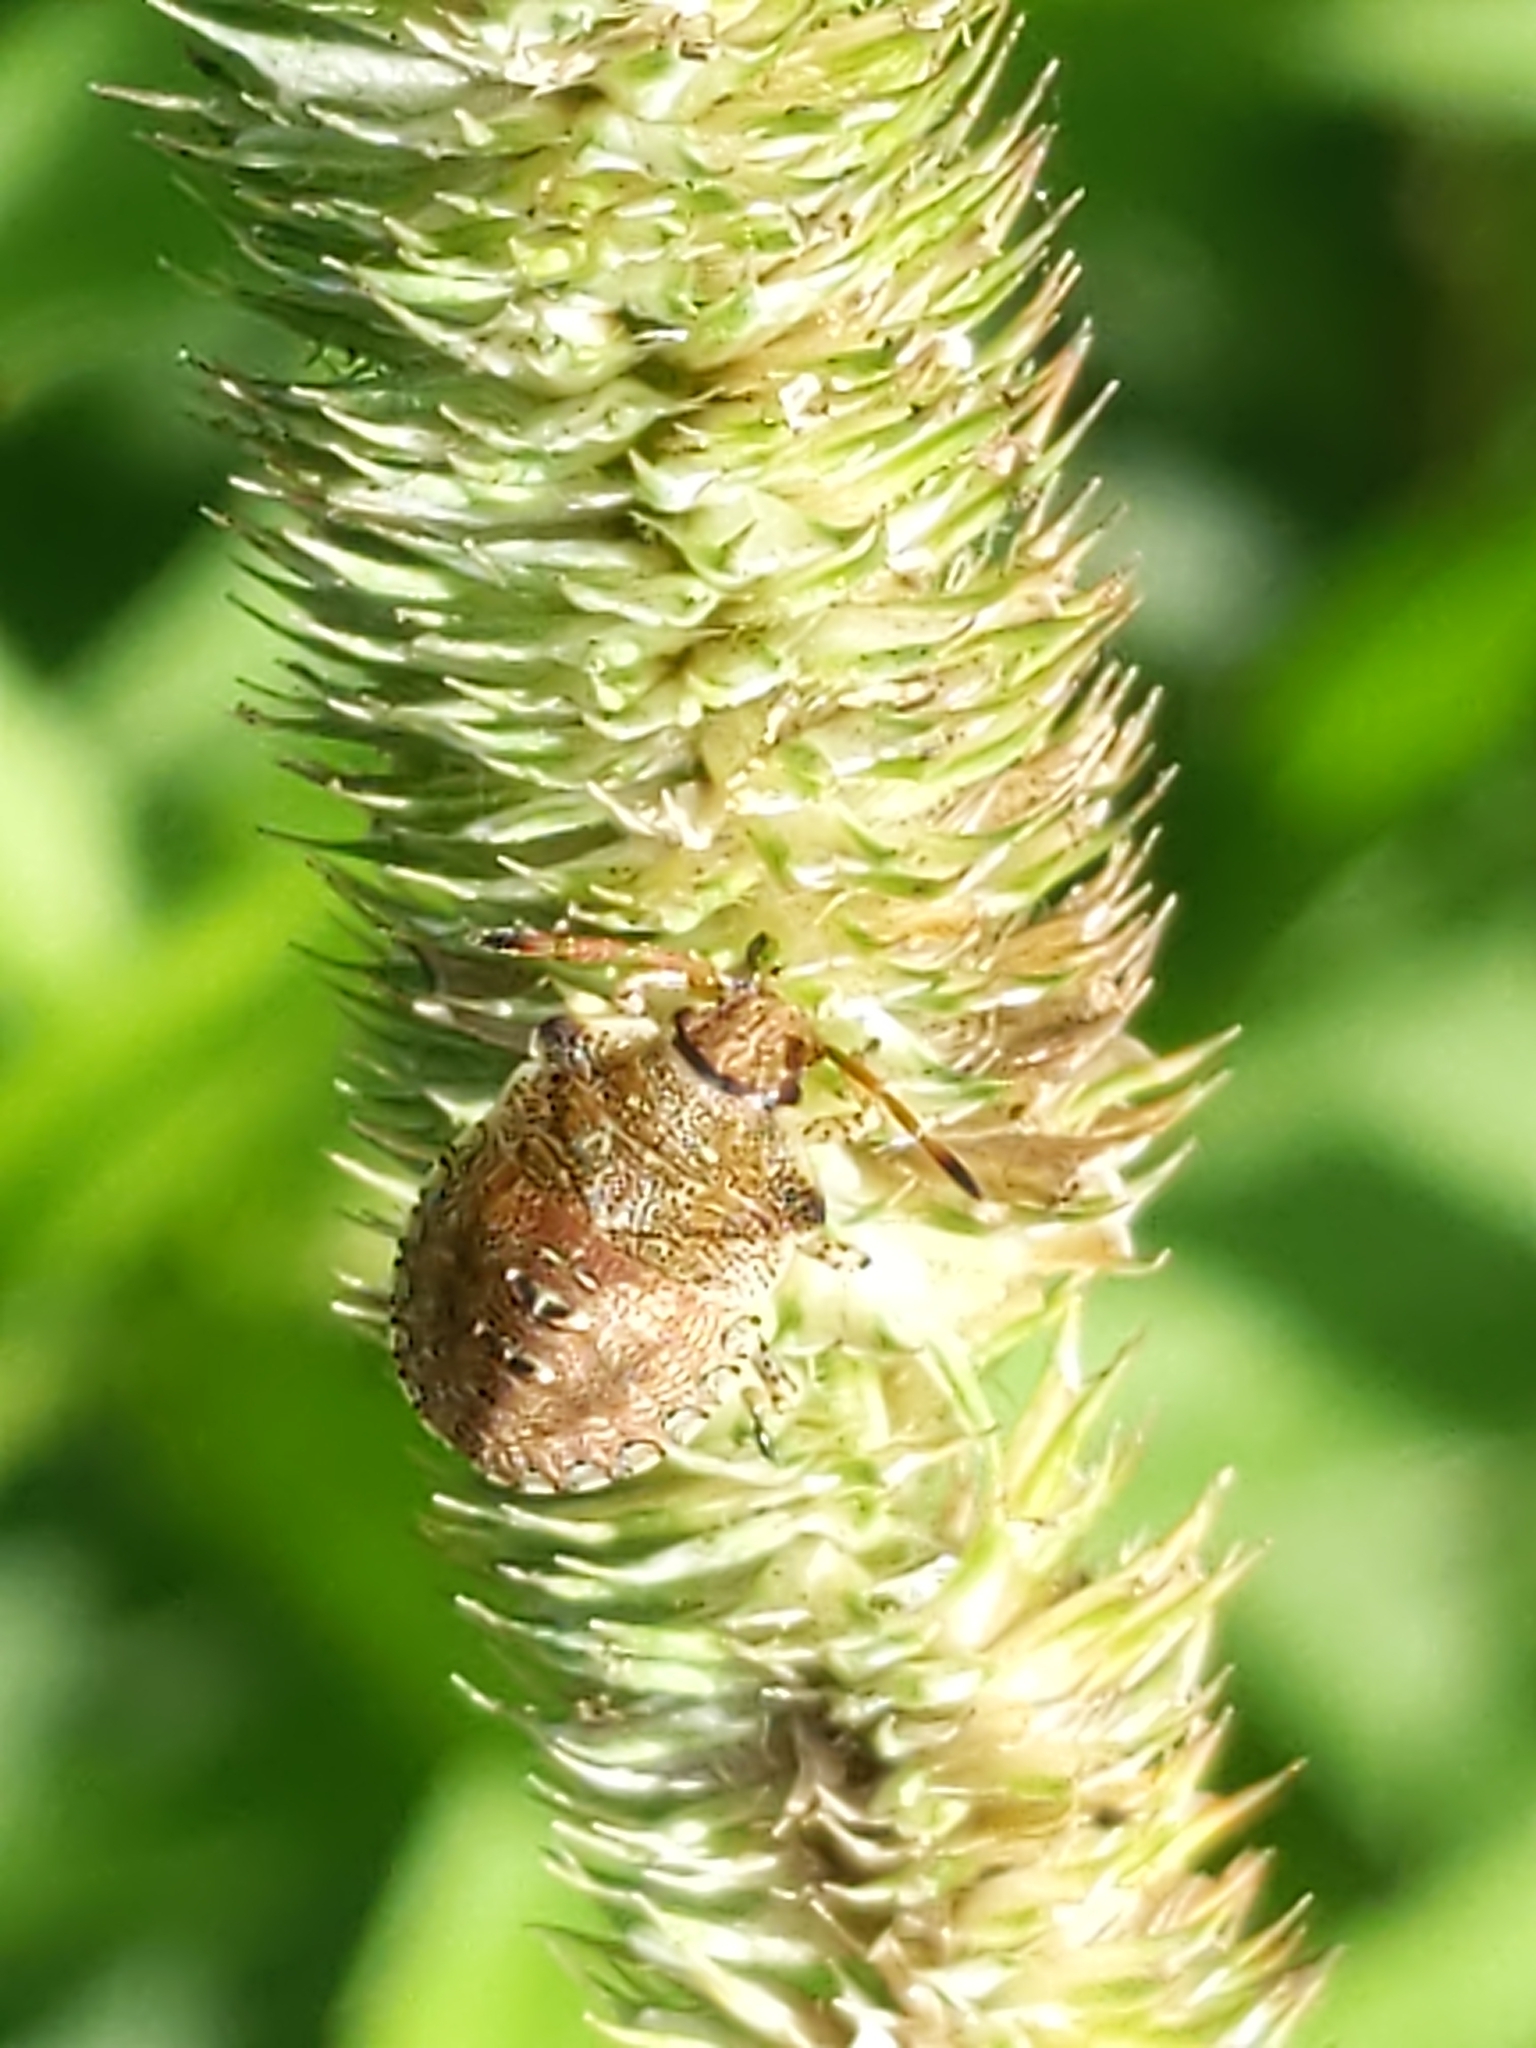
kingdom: Animalia
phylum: Arthropoda
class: Insecta
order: Hemiptera
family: Pentatomidae
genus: Euschistus
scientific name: Euschistus
